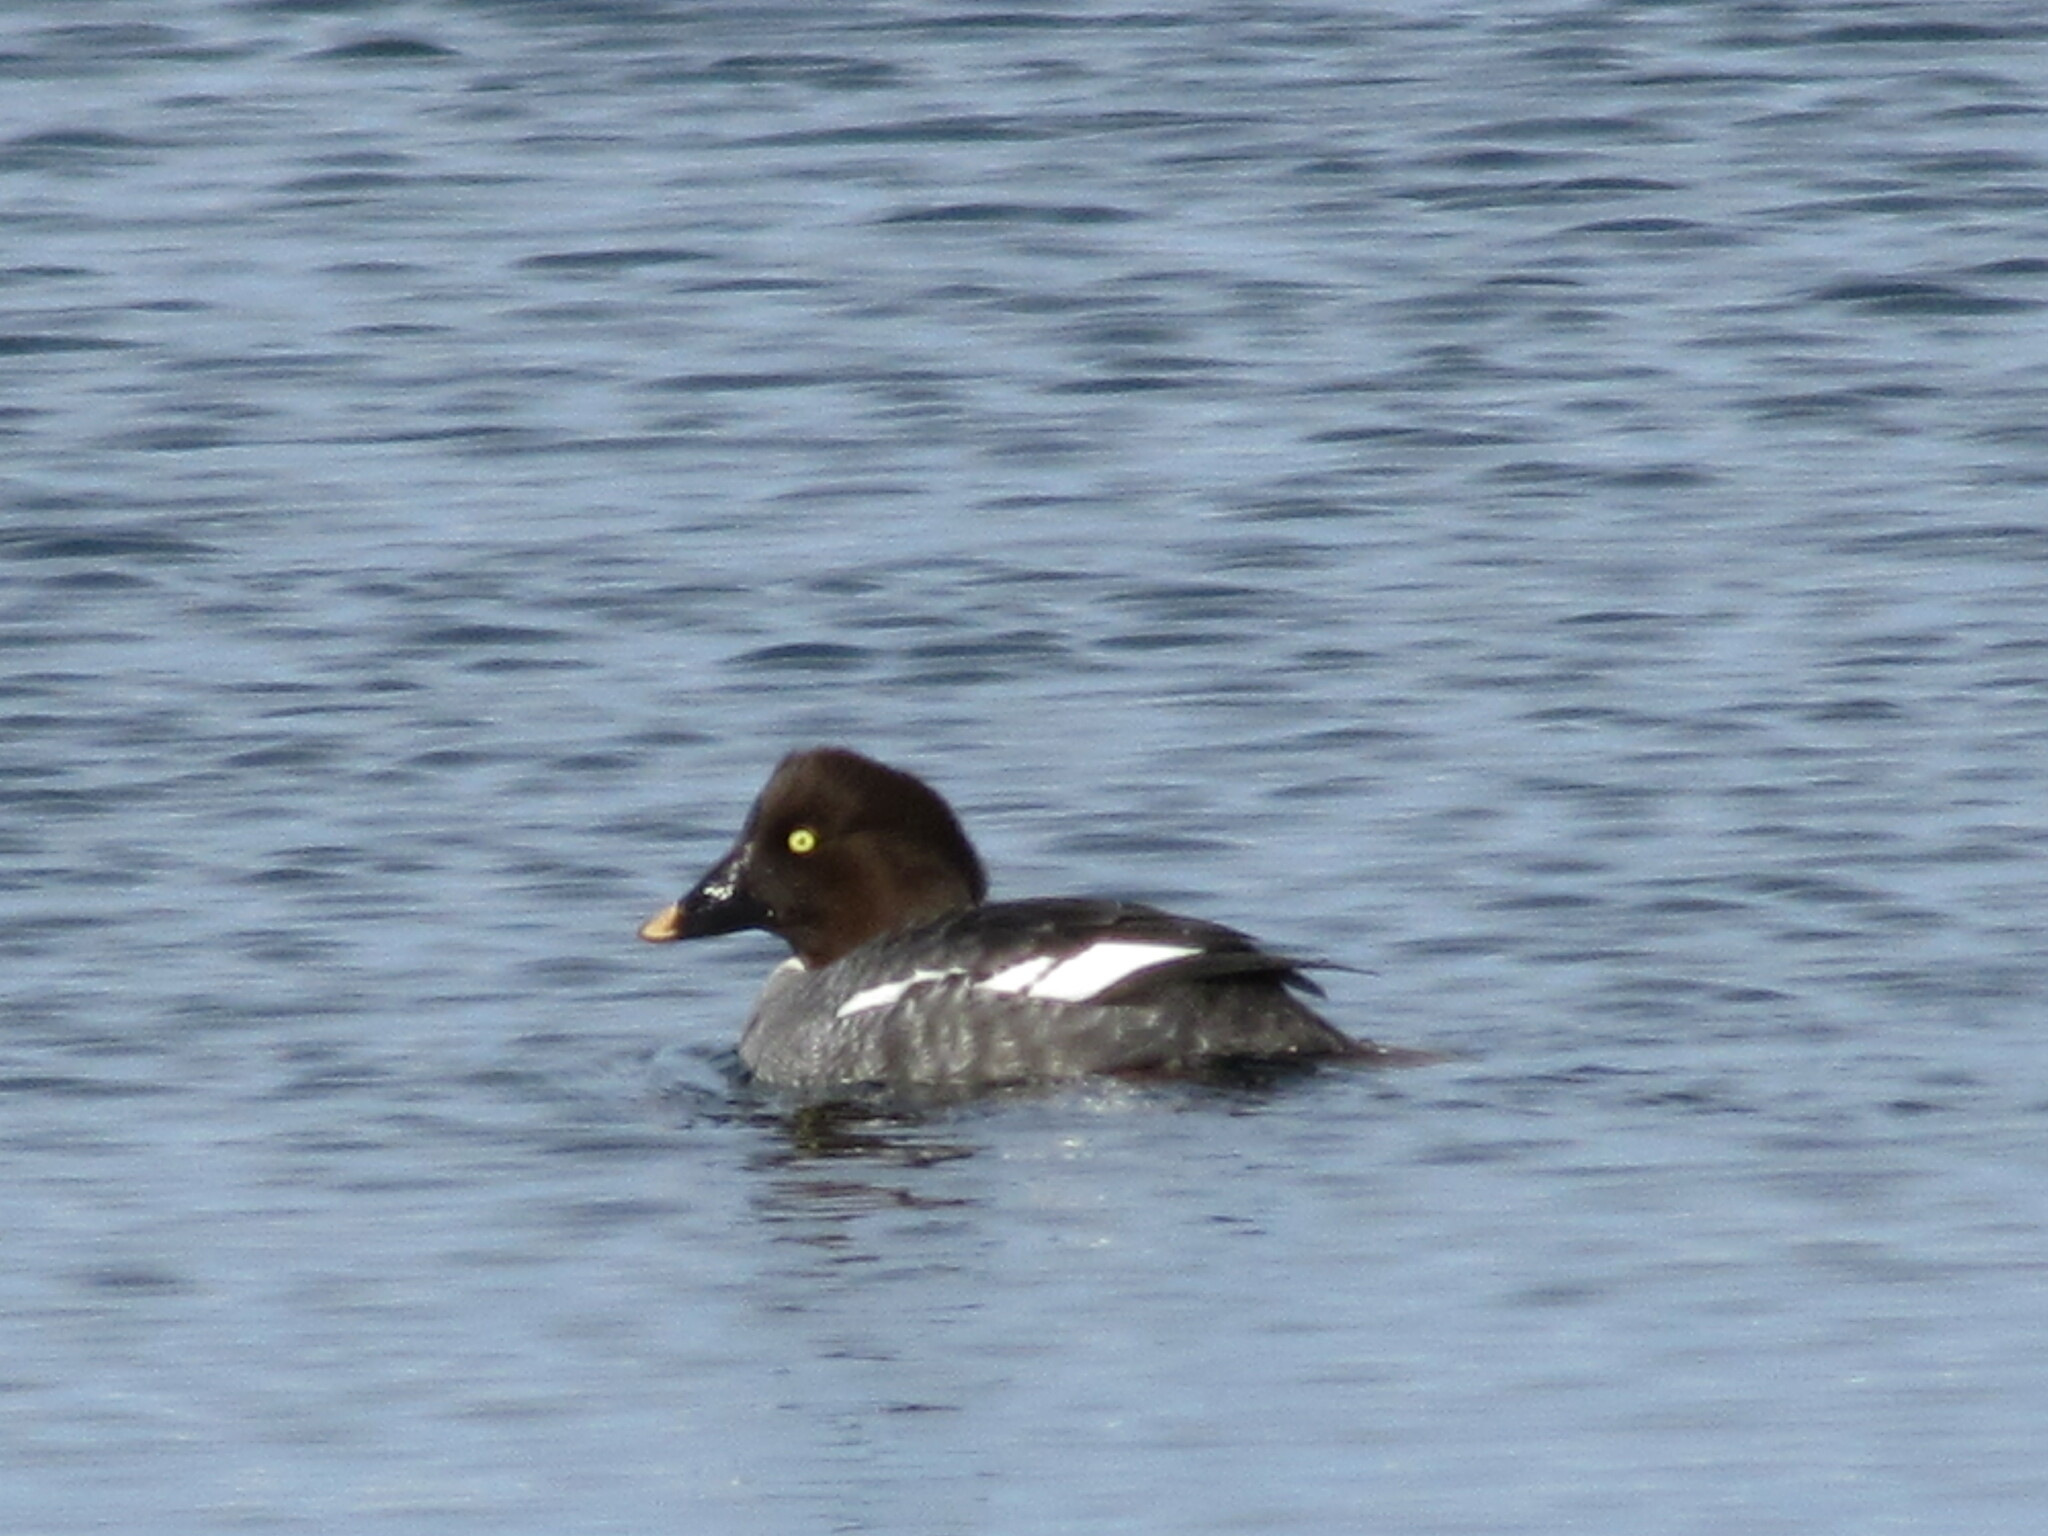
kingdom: Animalia
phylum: Chordata
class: Aves
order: Anseriformes
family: Anatidae
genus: Bucephala
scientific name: Bucephala clangula
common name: Common goldeneye
